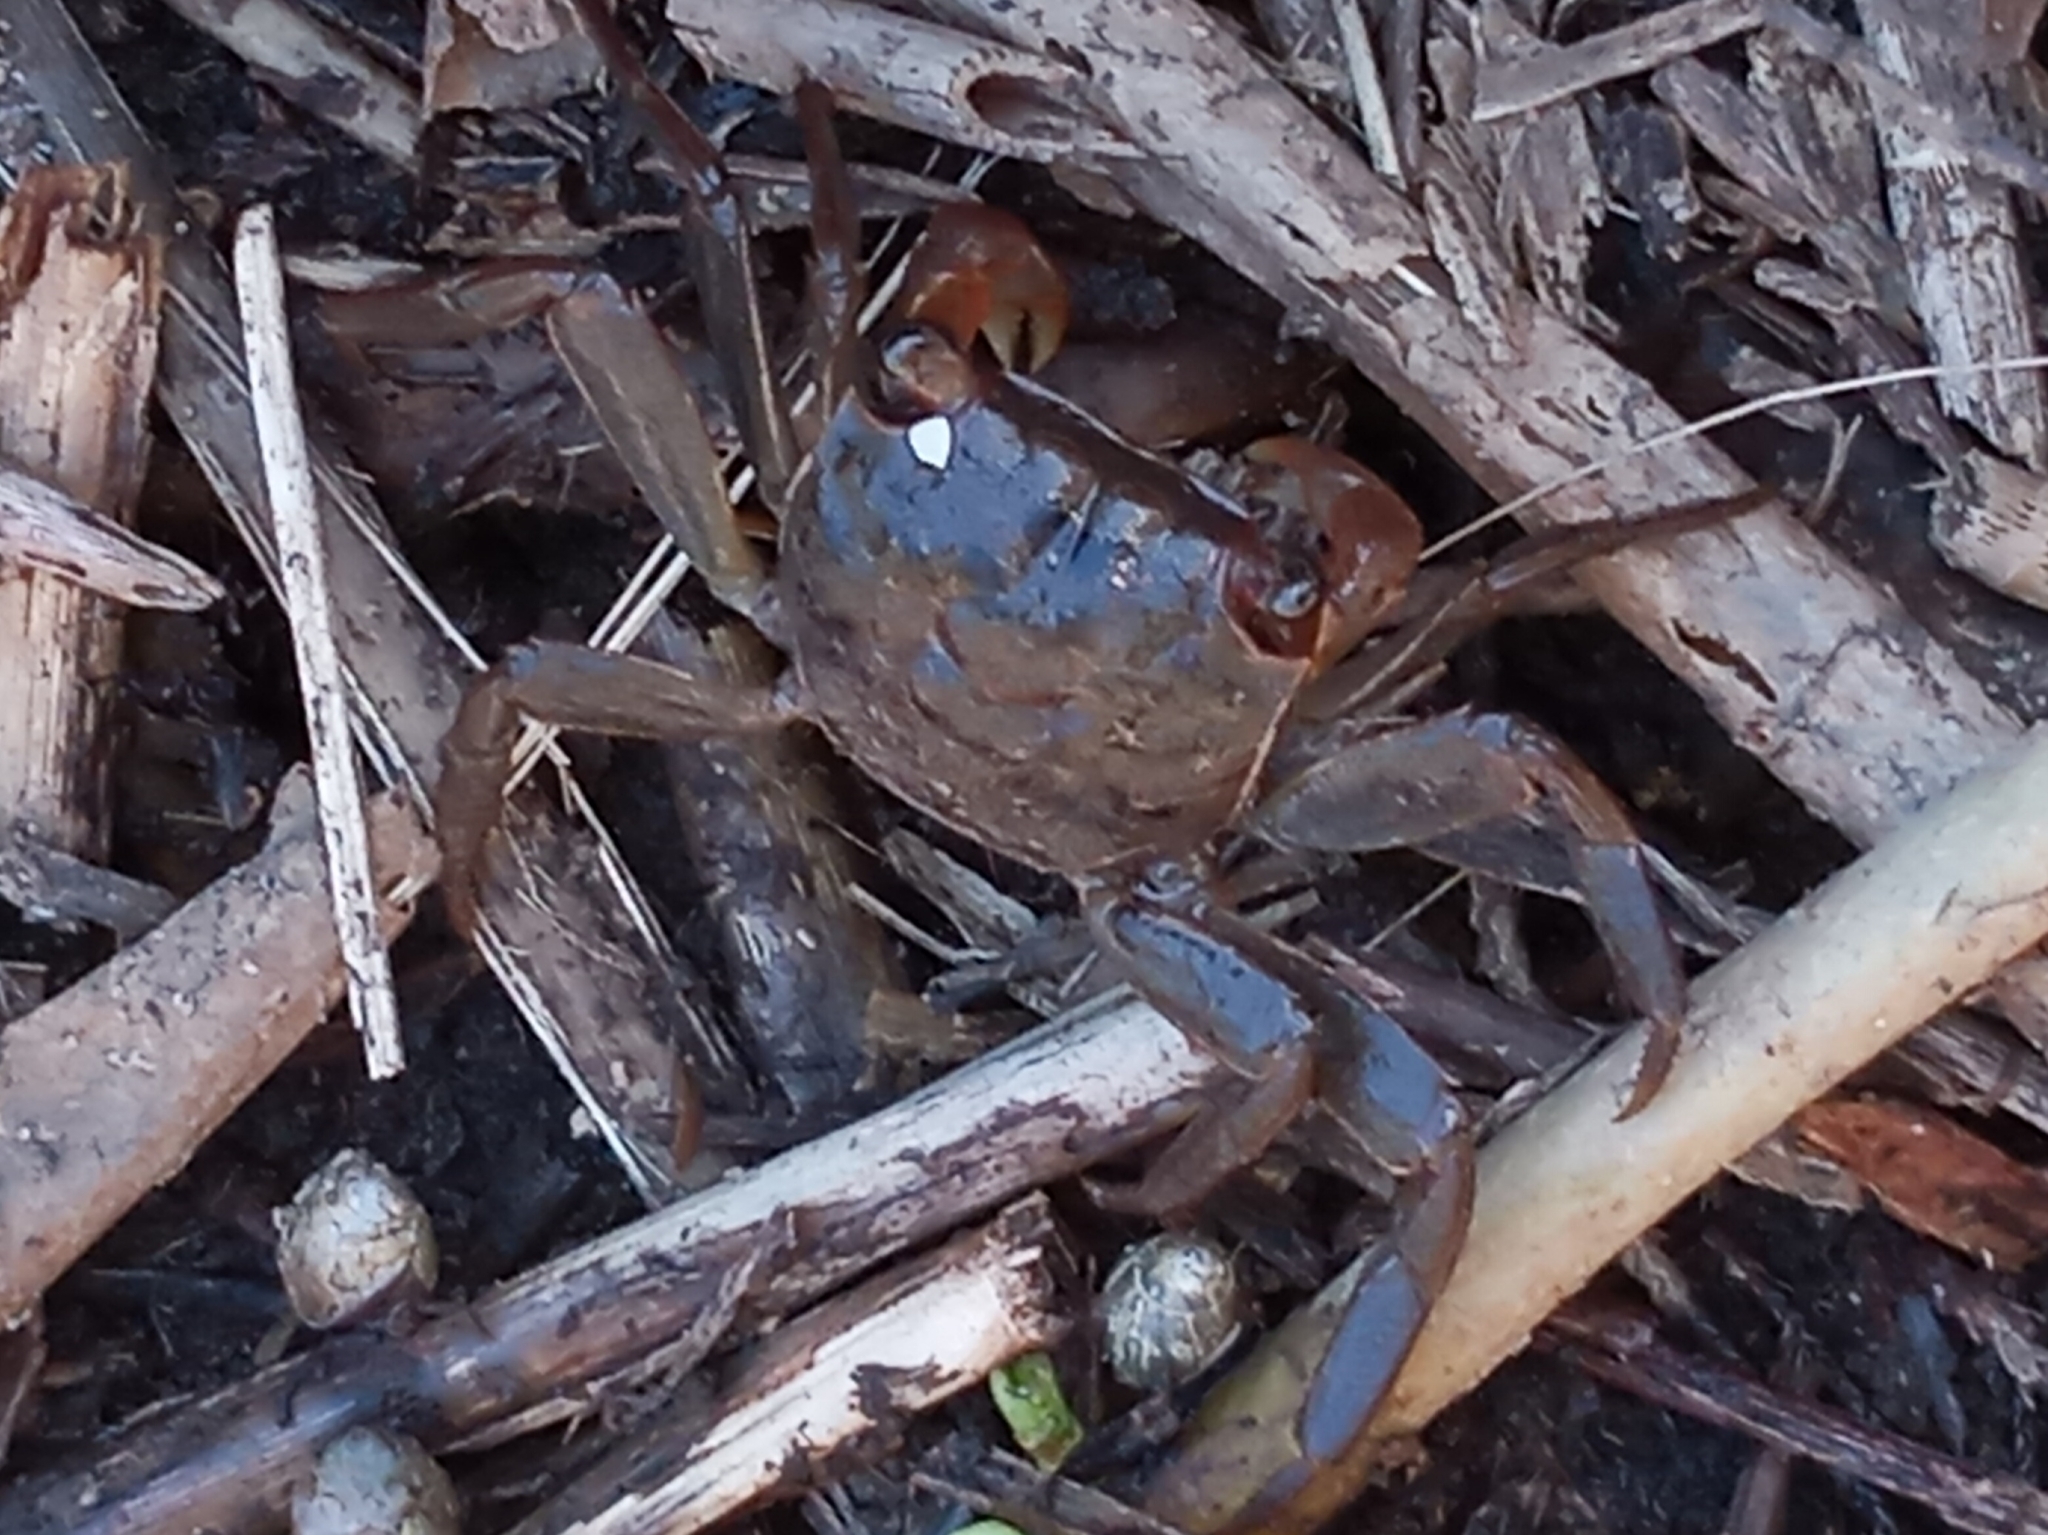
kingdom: Animalia
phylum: Arthropoda
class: Malacostraca
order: Decapoda
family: Sesarmidae
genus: Armases
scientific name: Armases cinereum
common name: Squareback marsh crab
